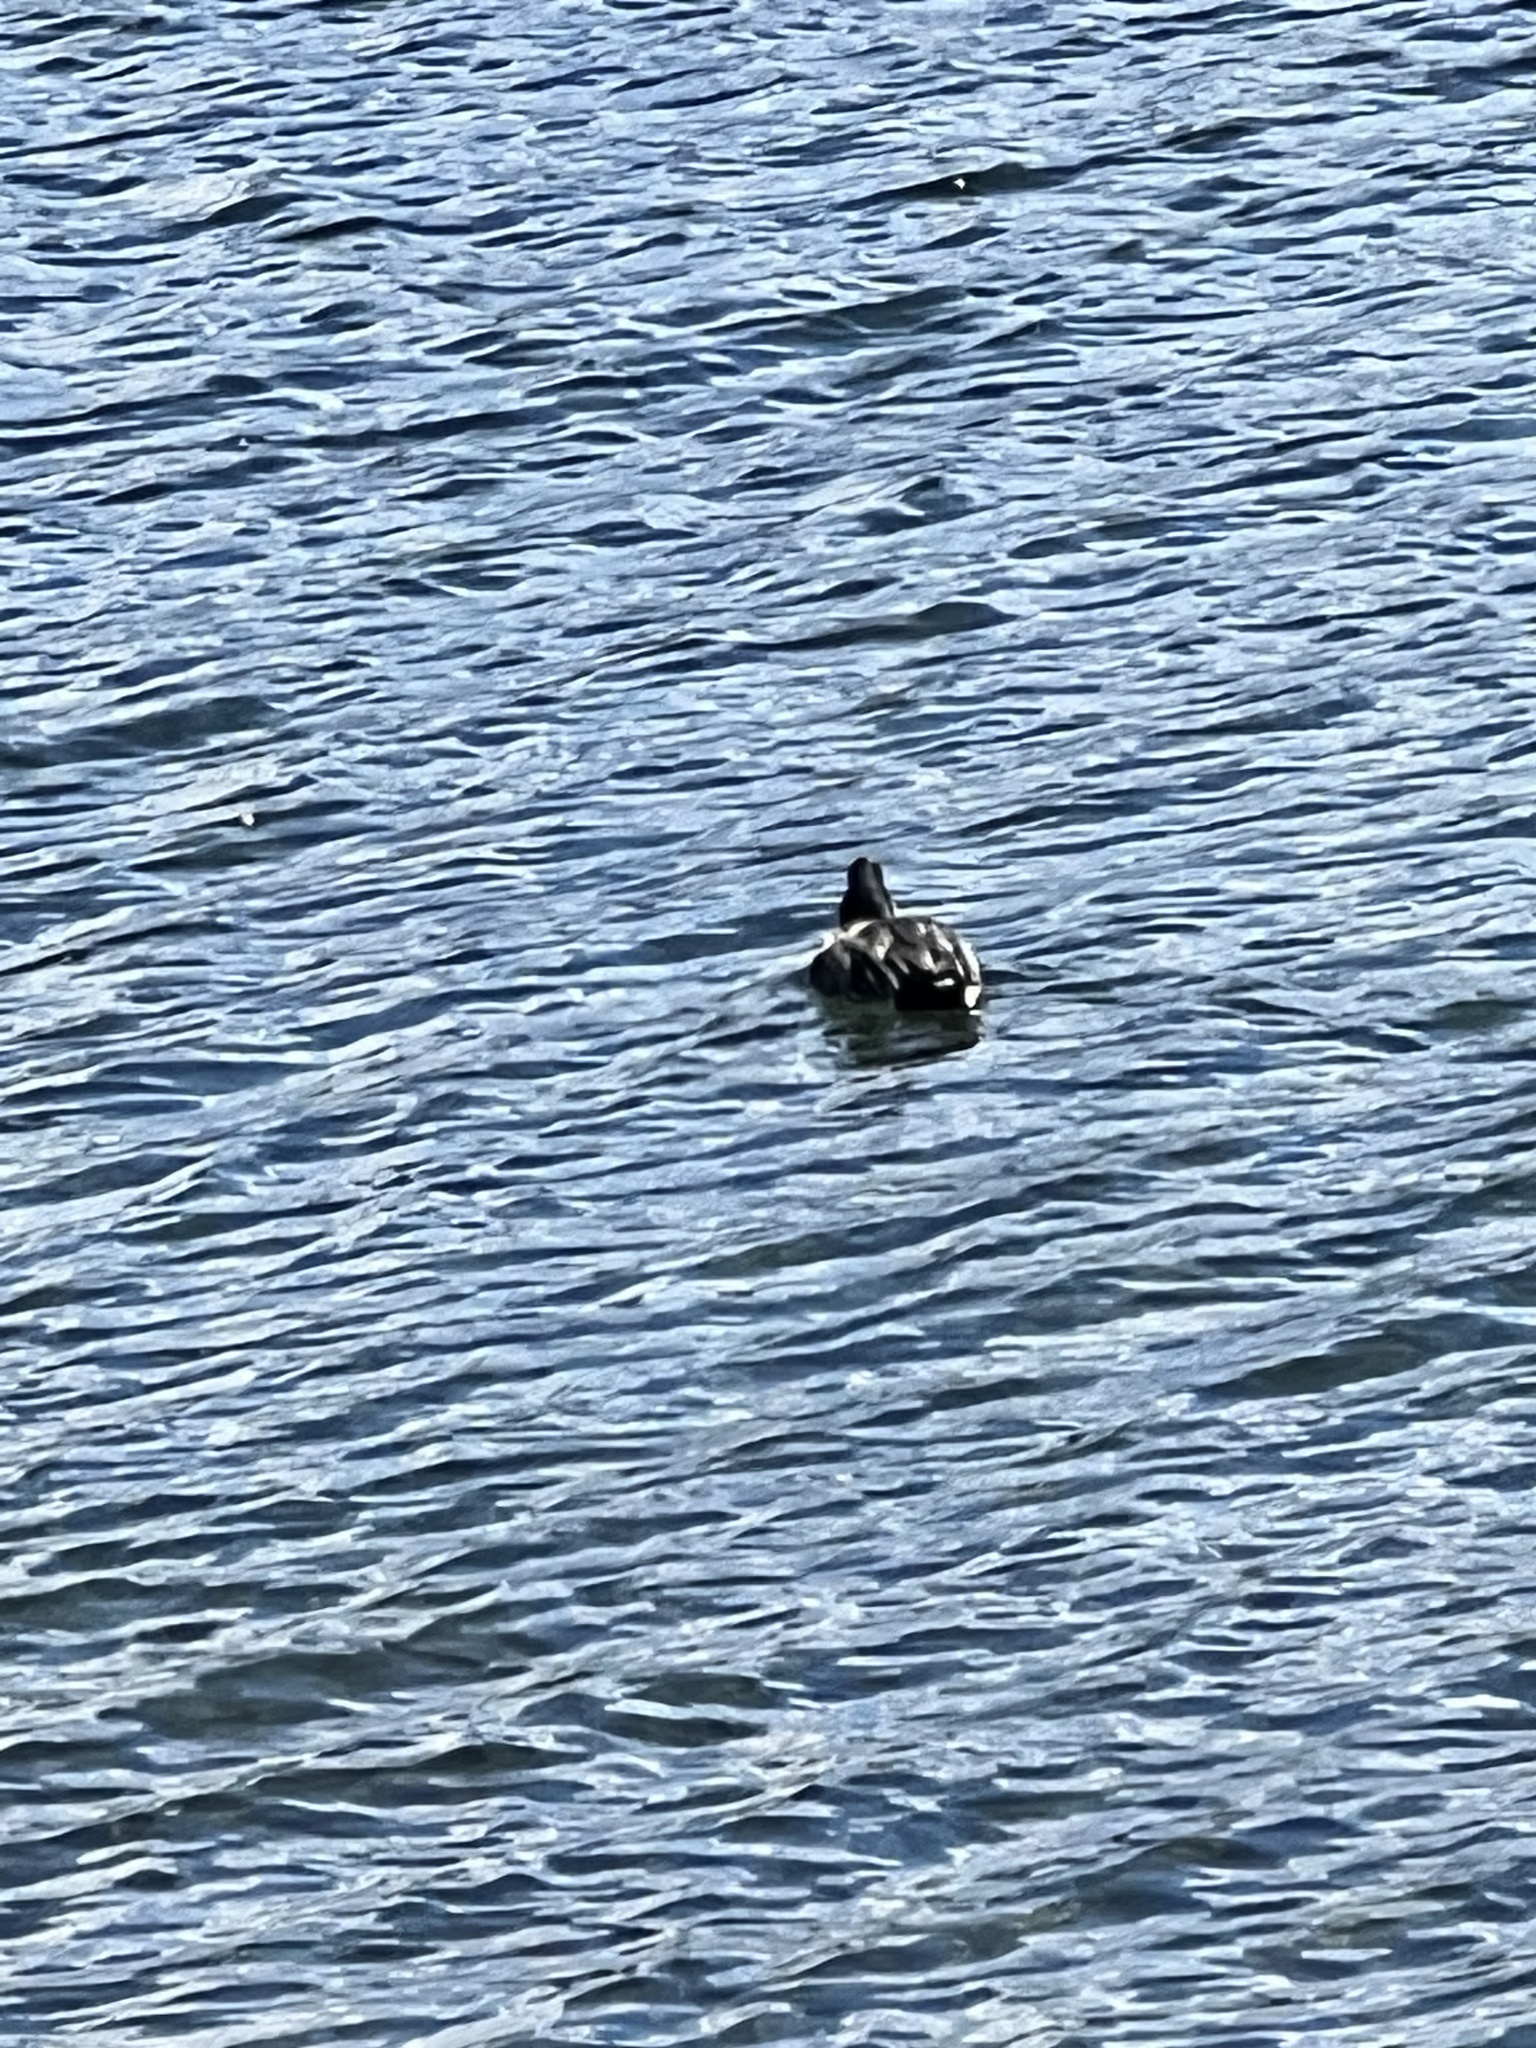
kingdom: Animalia
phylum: Chordata
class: Aves
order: Anseriformes
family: Anatidae
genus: Mareca
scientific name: Mareca americana
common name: American wigeon
